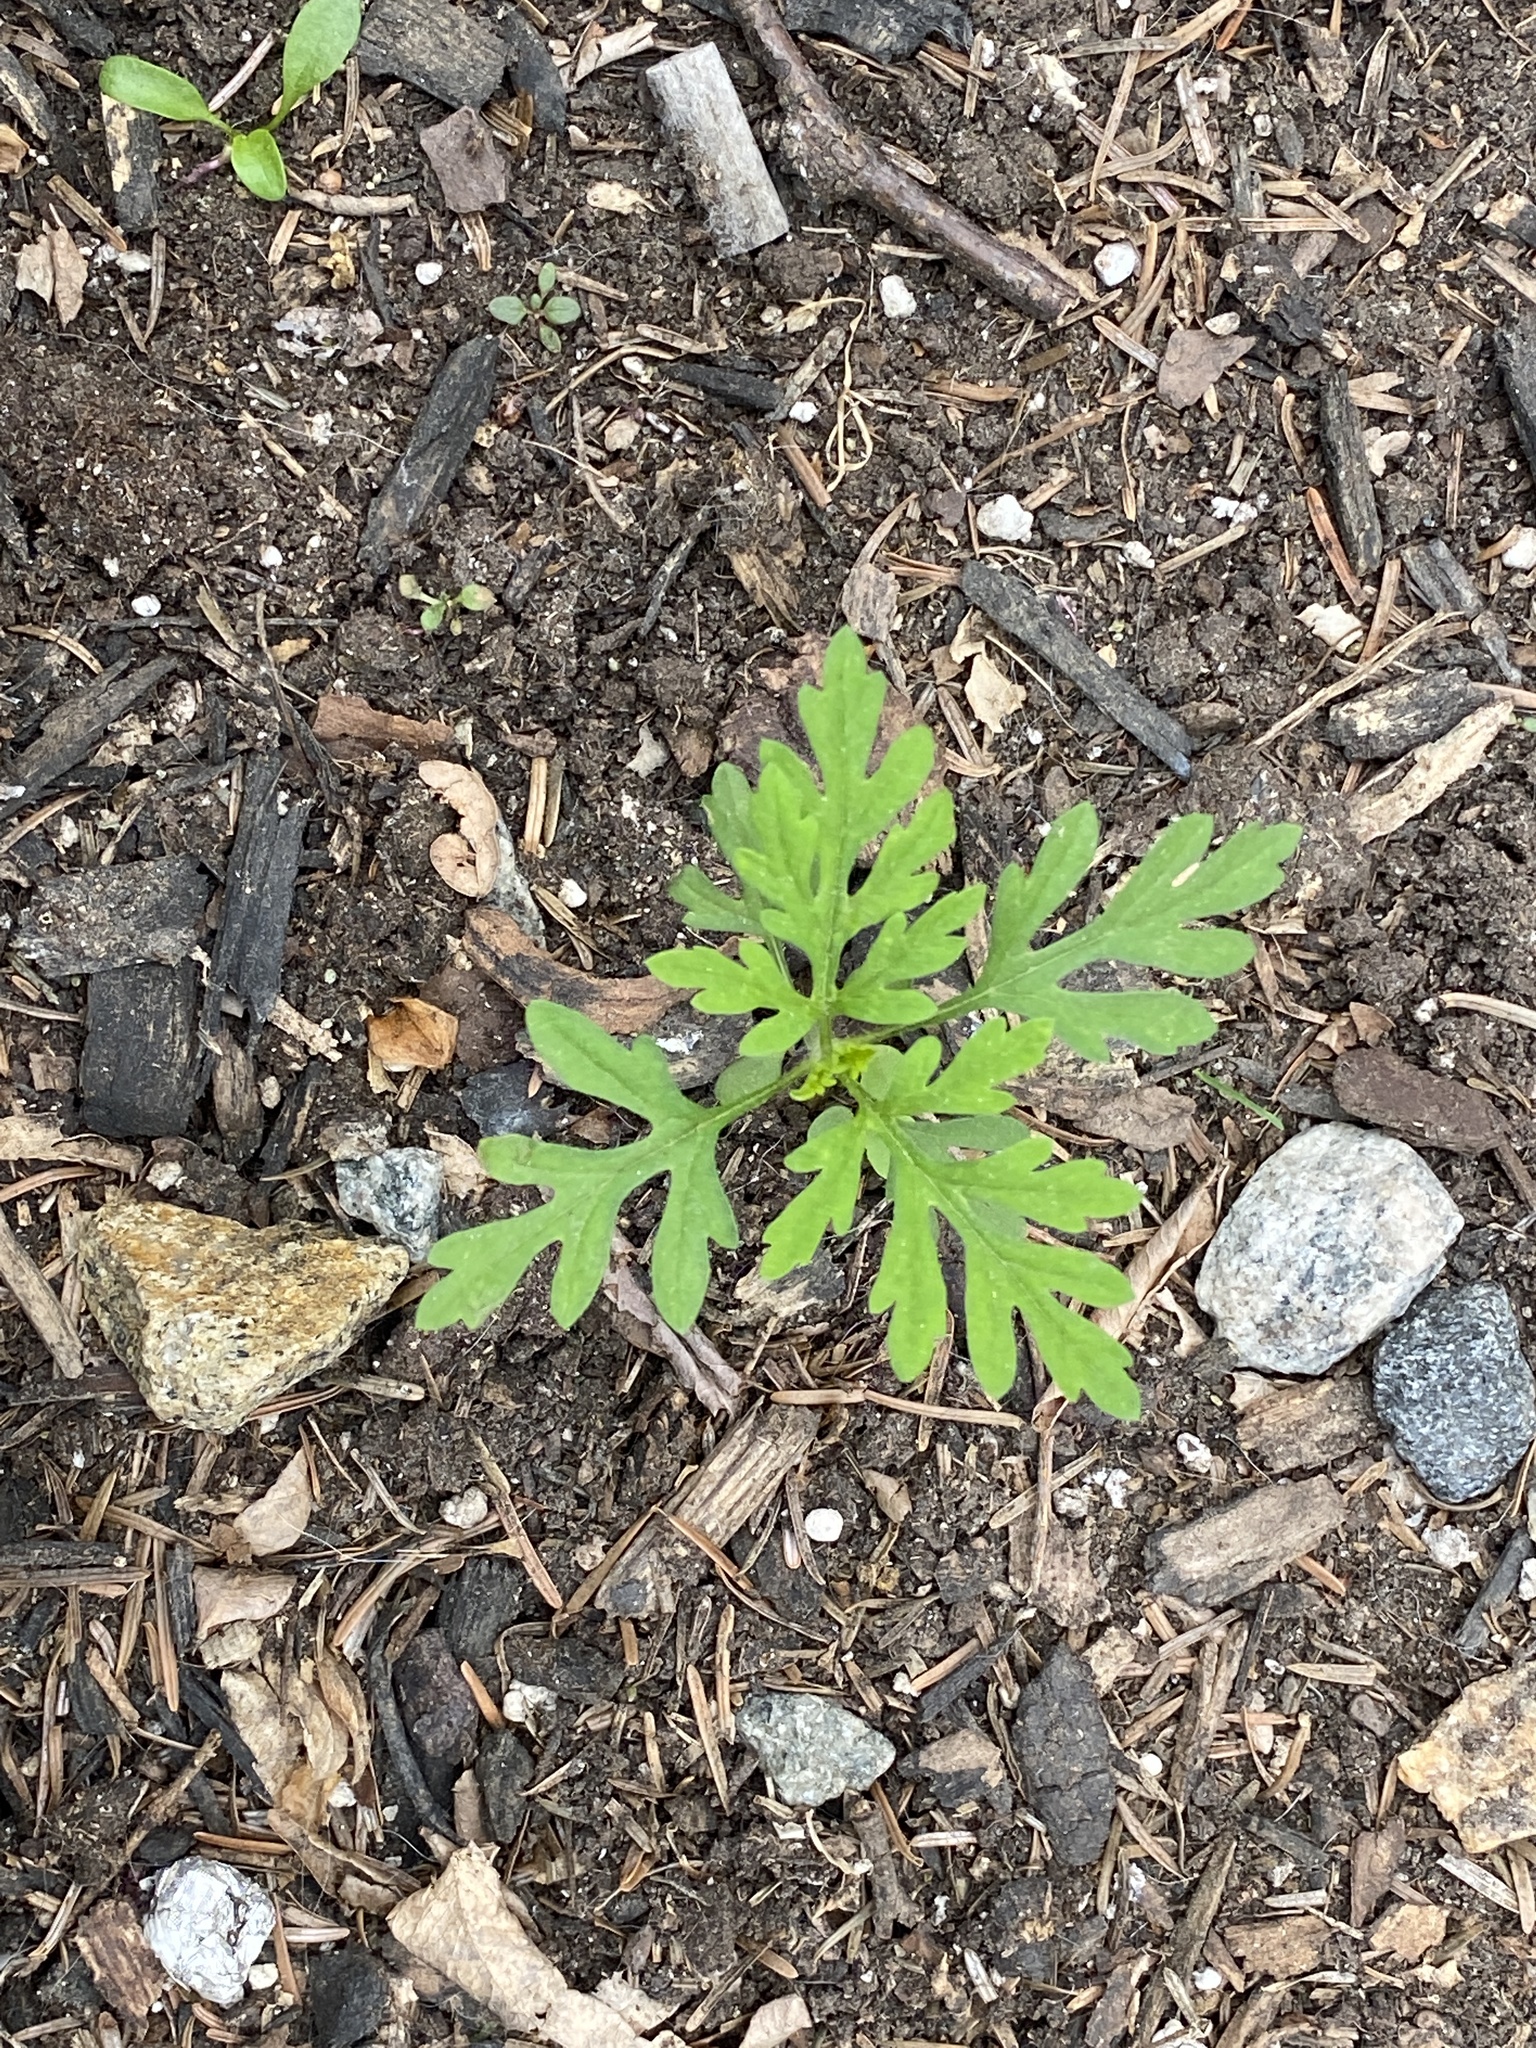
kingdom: Plantae
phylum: Tracheophyta
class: Magnoliopsida
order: Asterales
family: Asteraceae
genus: Ambrosia
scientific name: Ambrosia artemisiifolia
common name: Annual ragweed
